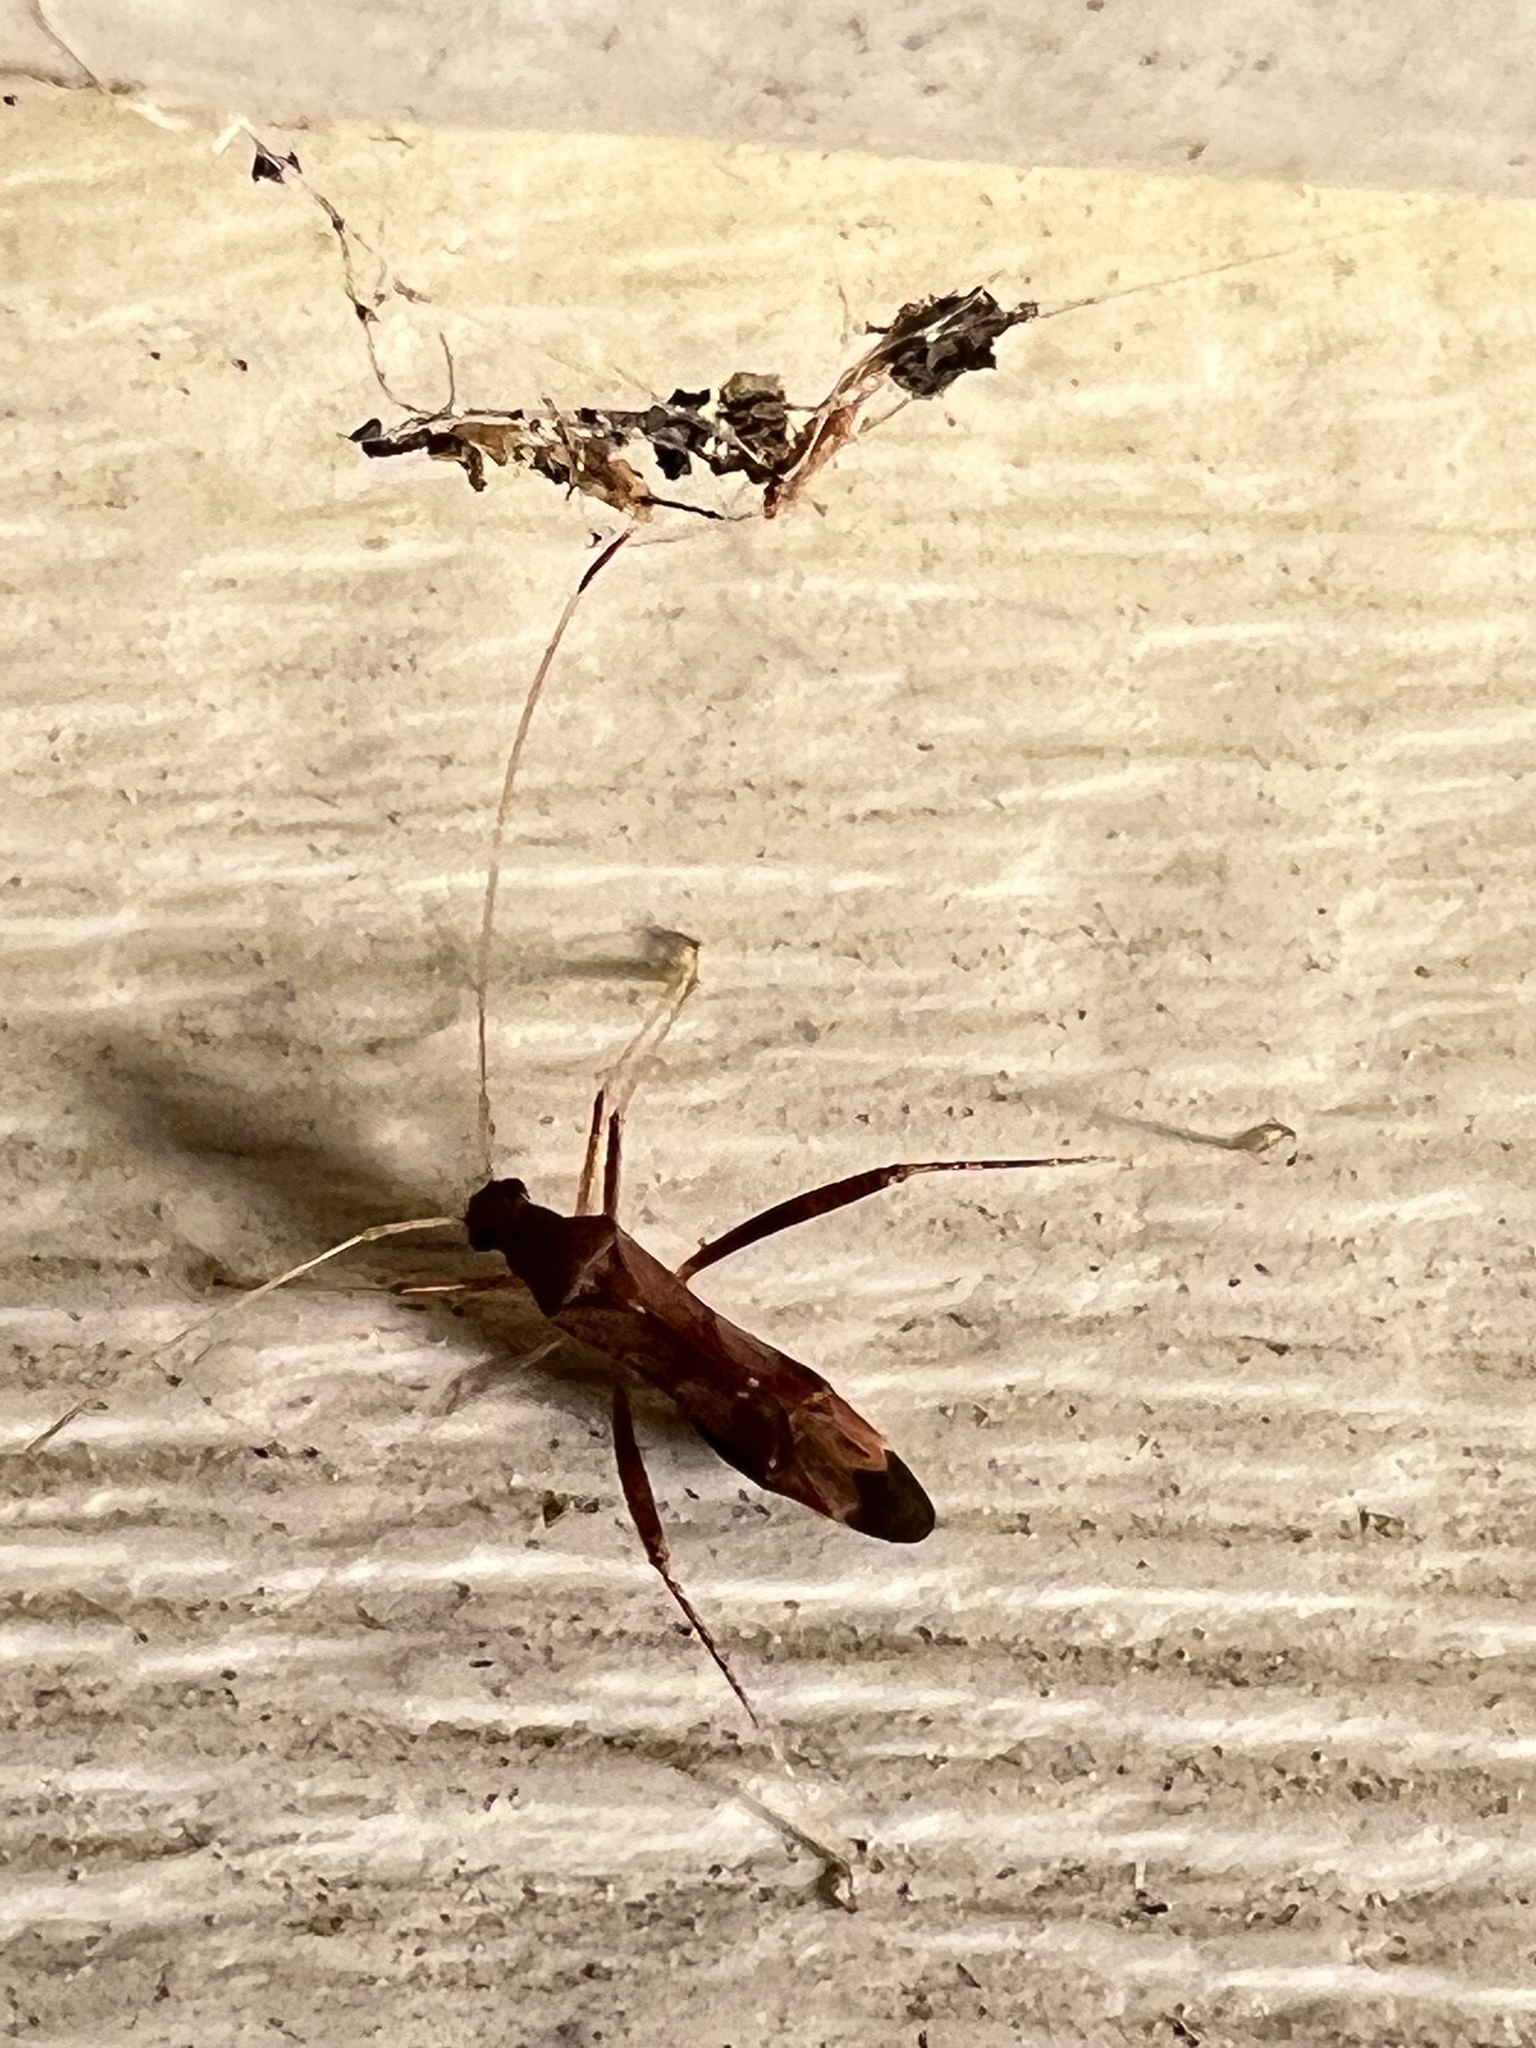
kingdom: Animalia
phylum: Arthropoda
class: Insecta
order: Hemiptera
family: Miridae
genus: Paraxenetus
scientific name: Paraxenetus guttulatus
